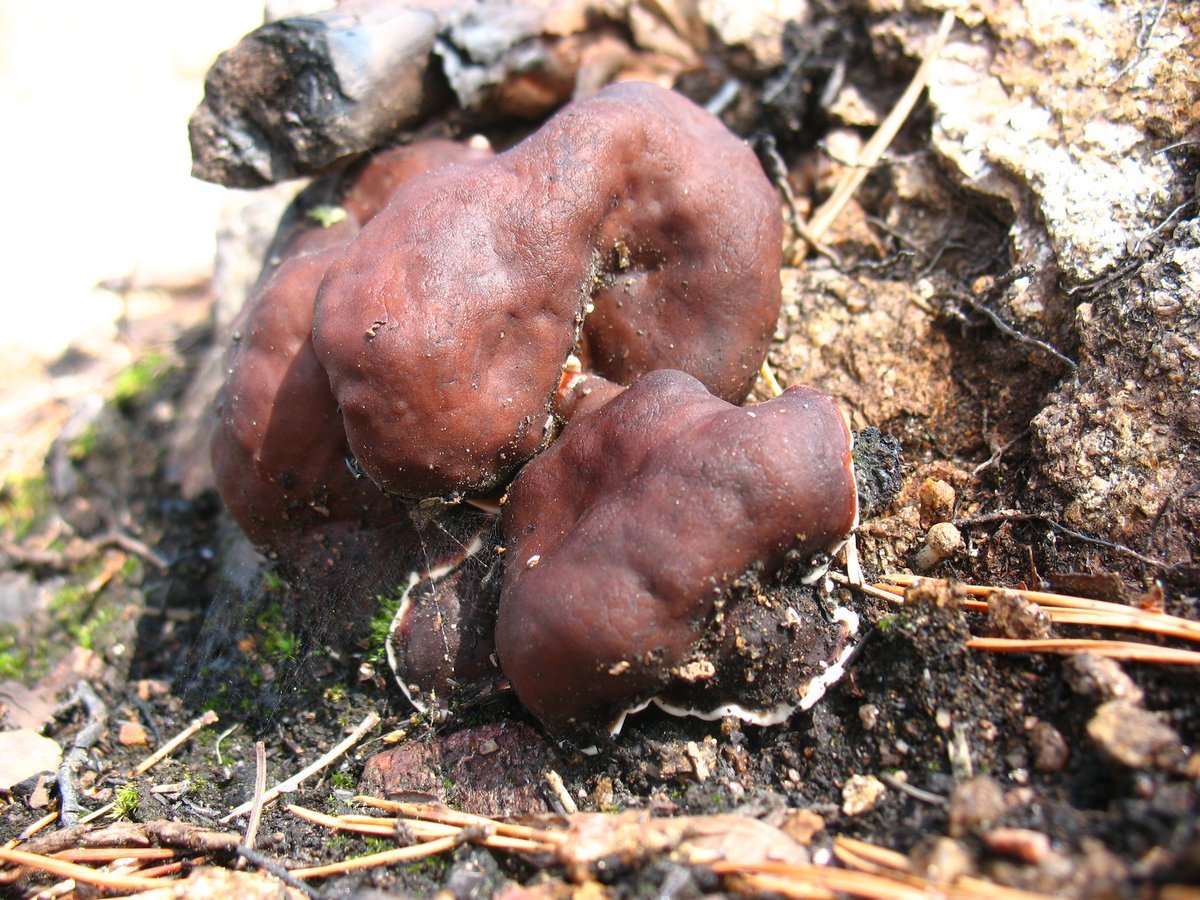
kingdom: Fungi
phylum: Ascomycota
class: Pezizomycetes
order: Pezizales
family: Rhizinaceae
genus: Rhizina
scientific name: Rhizina undulata
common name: Pine firefungus
